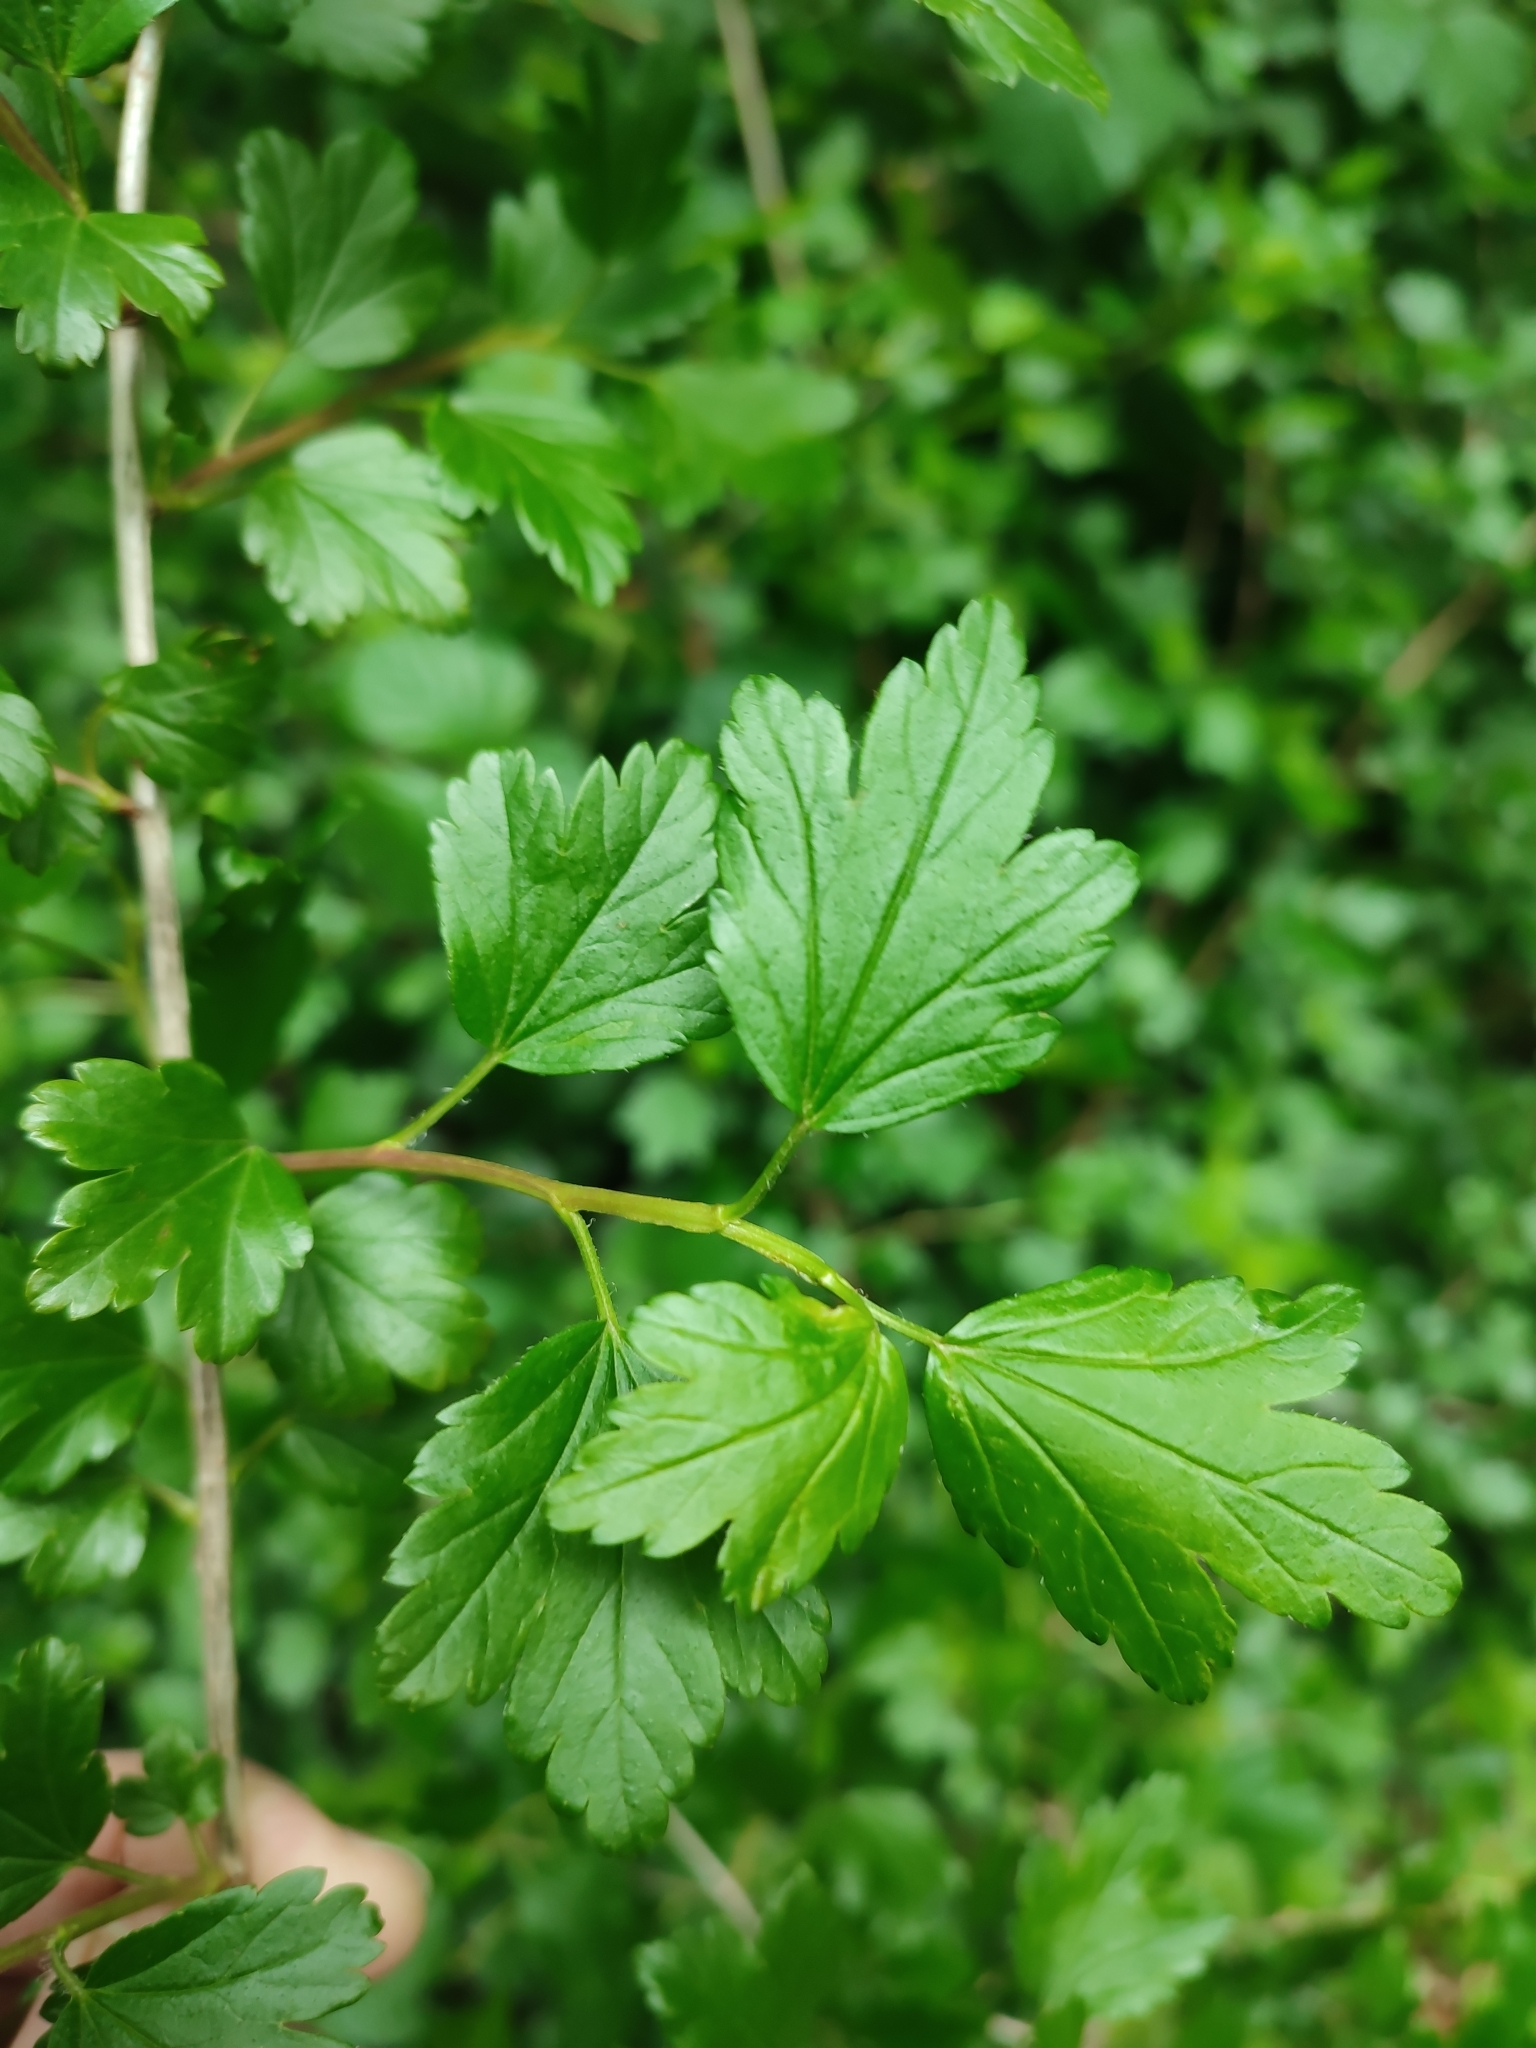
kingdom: Plantae
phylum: Tracheophyta
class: Magnoliopsida
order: Saxifragales
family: Grossulariaceae
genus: Ribes
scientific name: Ribes alpinum
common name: Alpine currant
